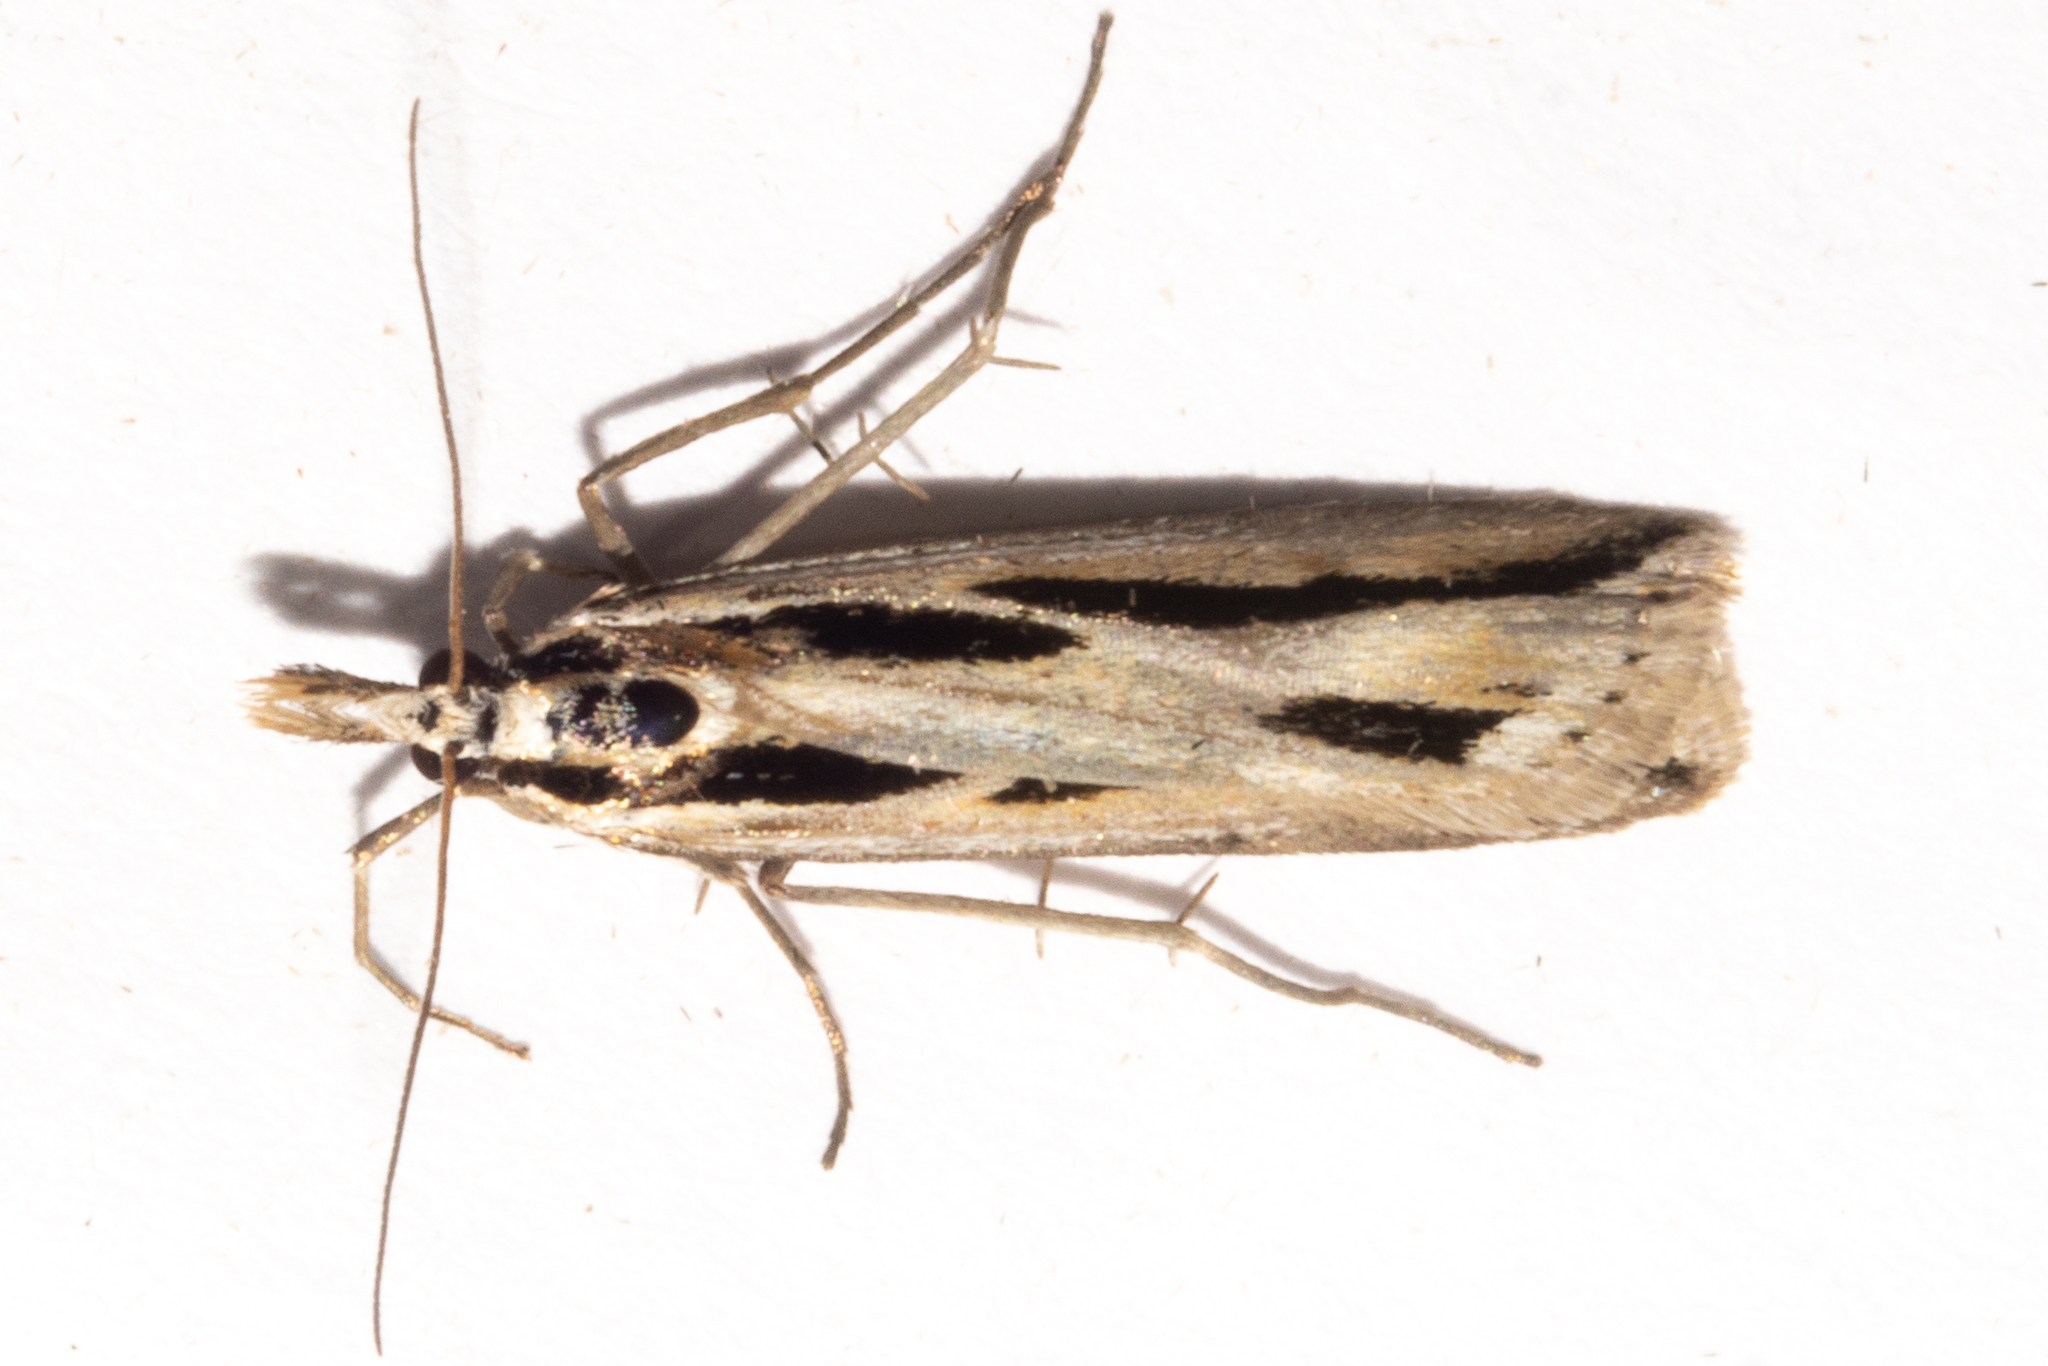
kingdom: Animalia
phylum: Arthropoda
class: Insecta
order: Lepidoptera
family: Crambidae
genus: Scoparia
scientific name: Scoparia claranota
